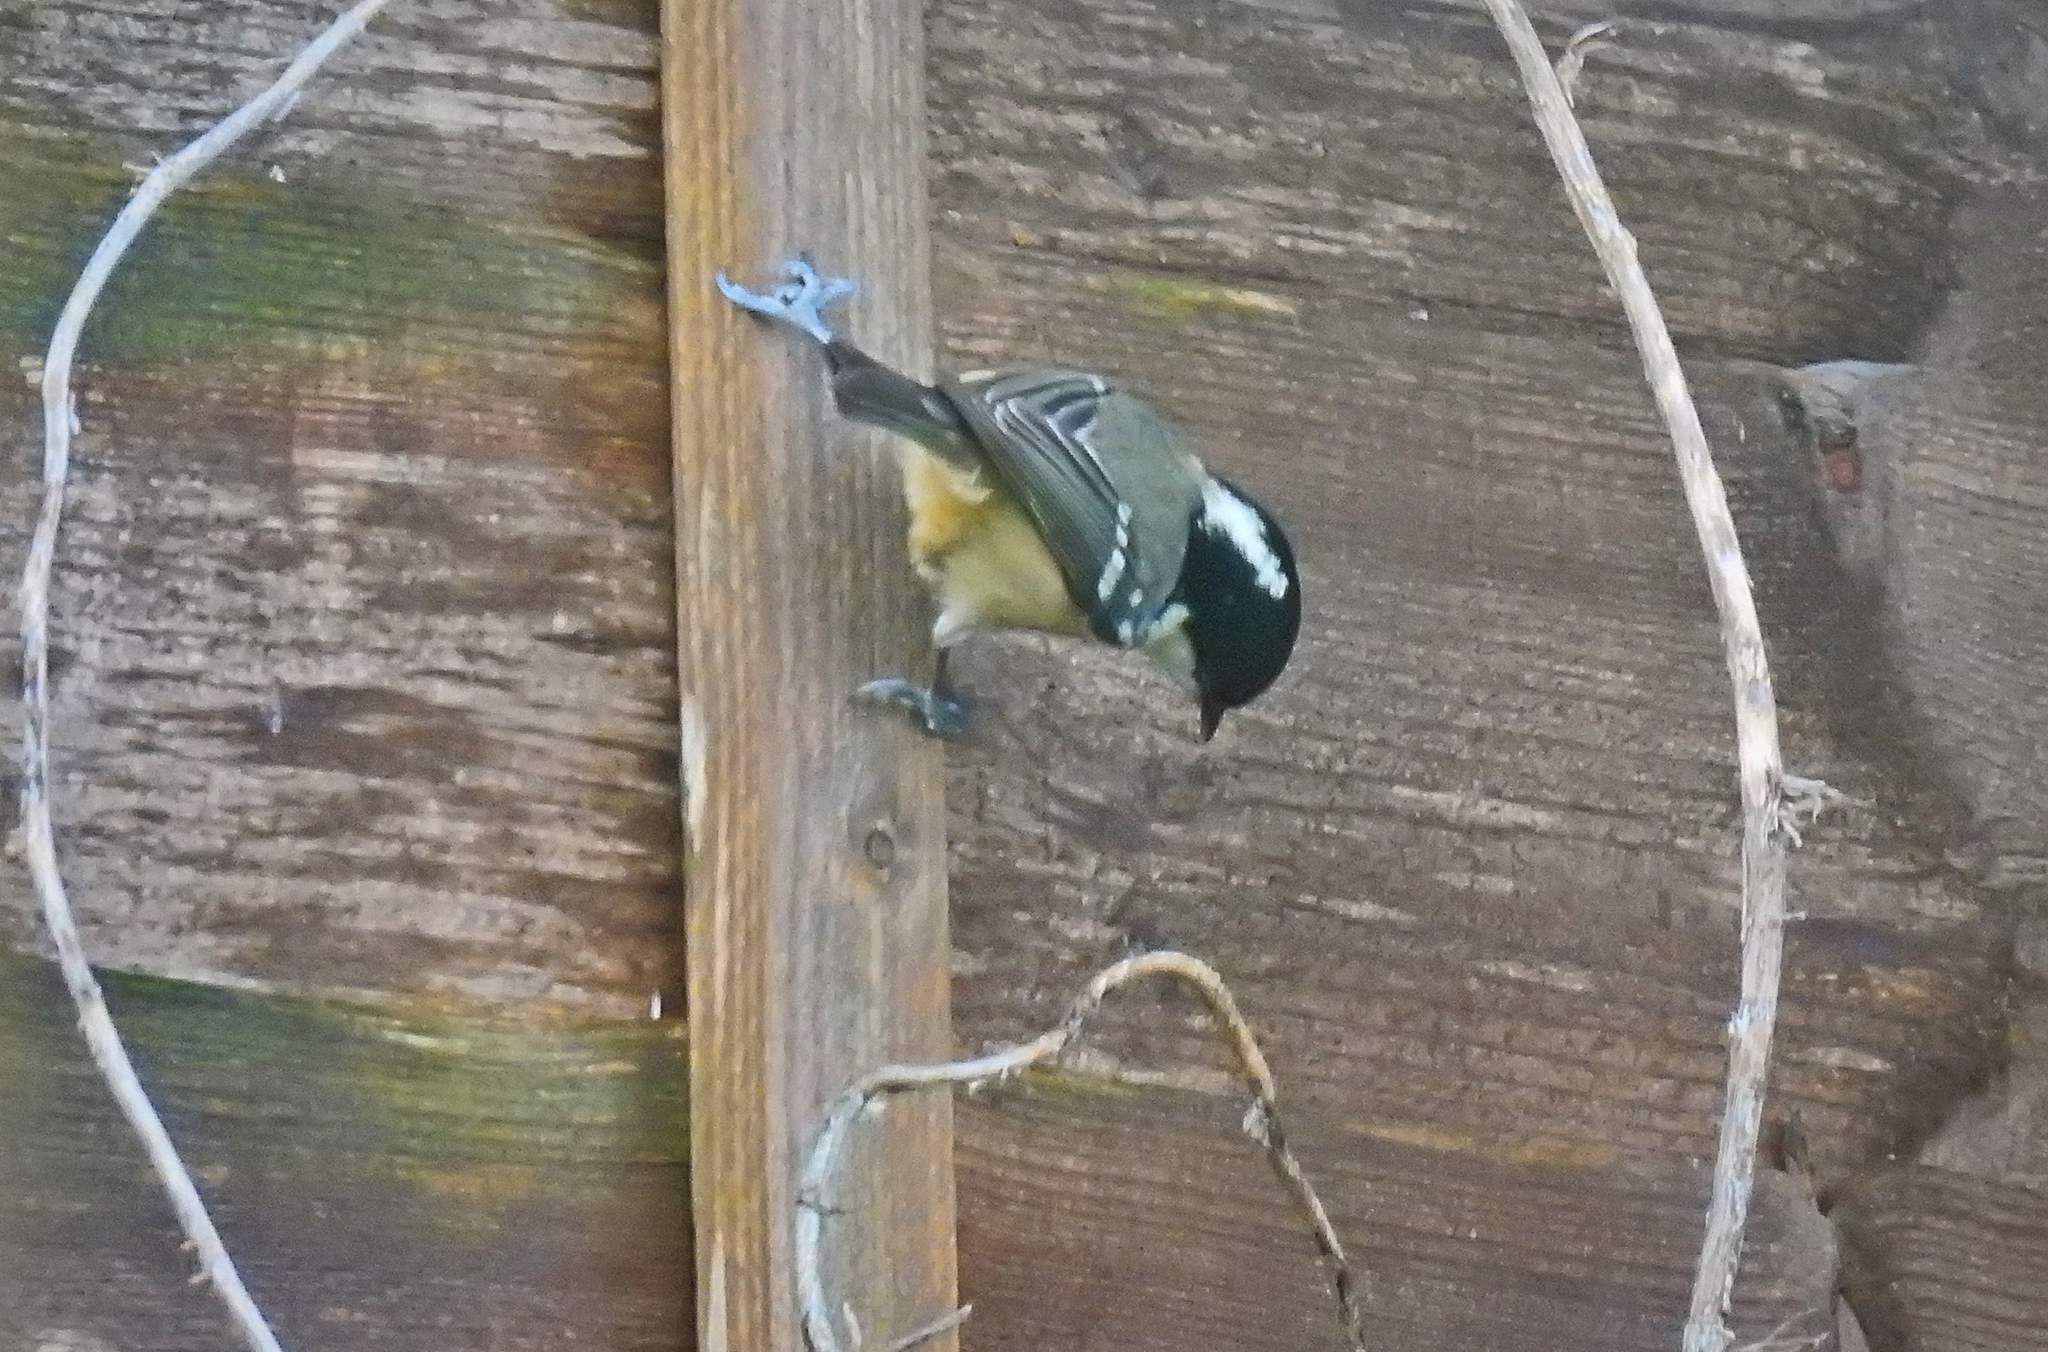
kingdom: Animalia
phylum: Chordata
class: Aves
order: Passeriformes
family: Paridae
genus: Periparus
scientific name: Periparus ater
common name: Coal tit
